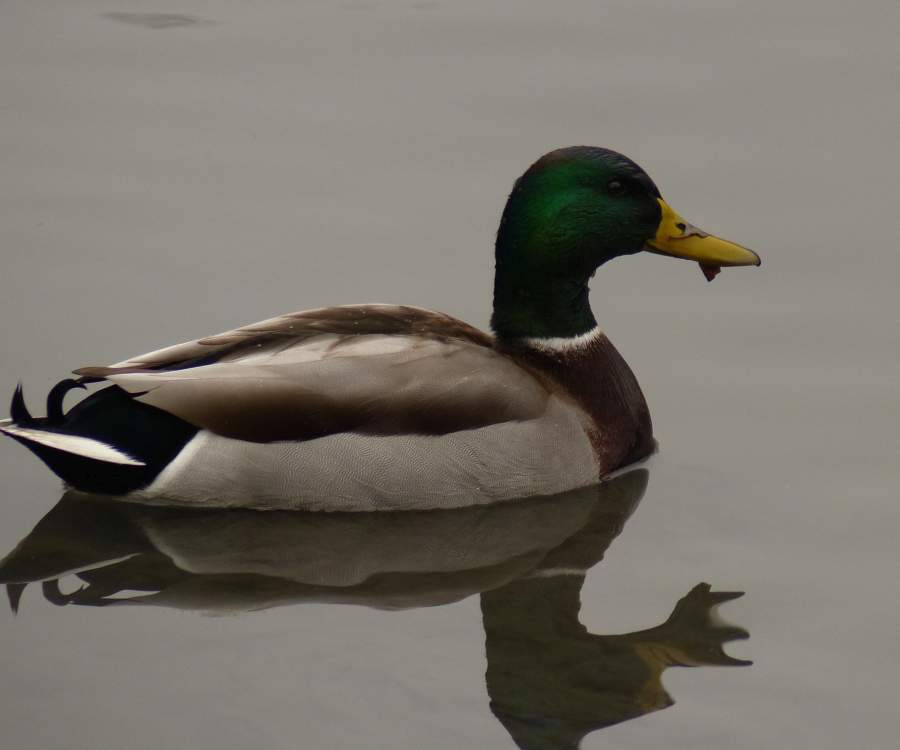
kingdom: Animalia
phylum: Chordata
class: Aves
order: Anseriformes
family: Anatidae
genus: Anas
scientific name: Anas platyrhynchos
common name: Mallard
